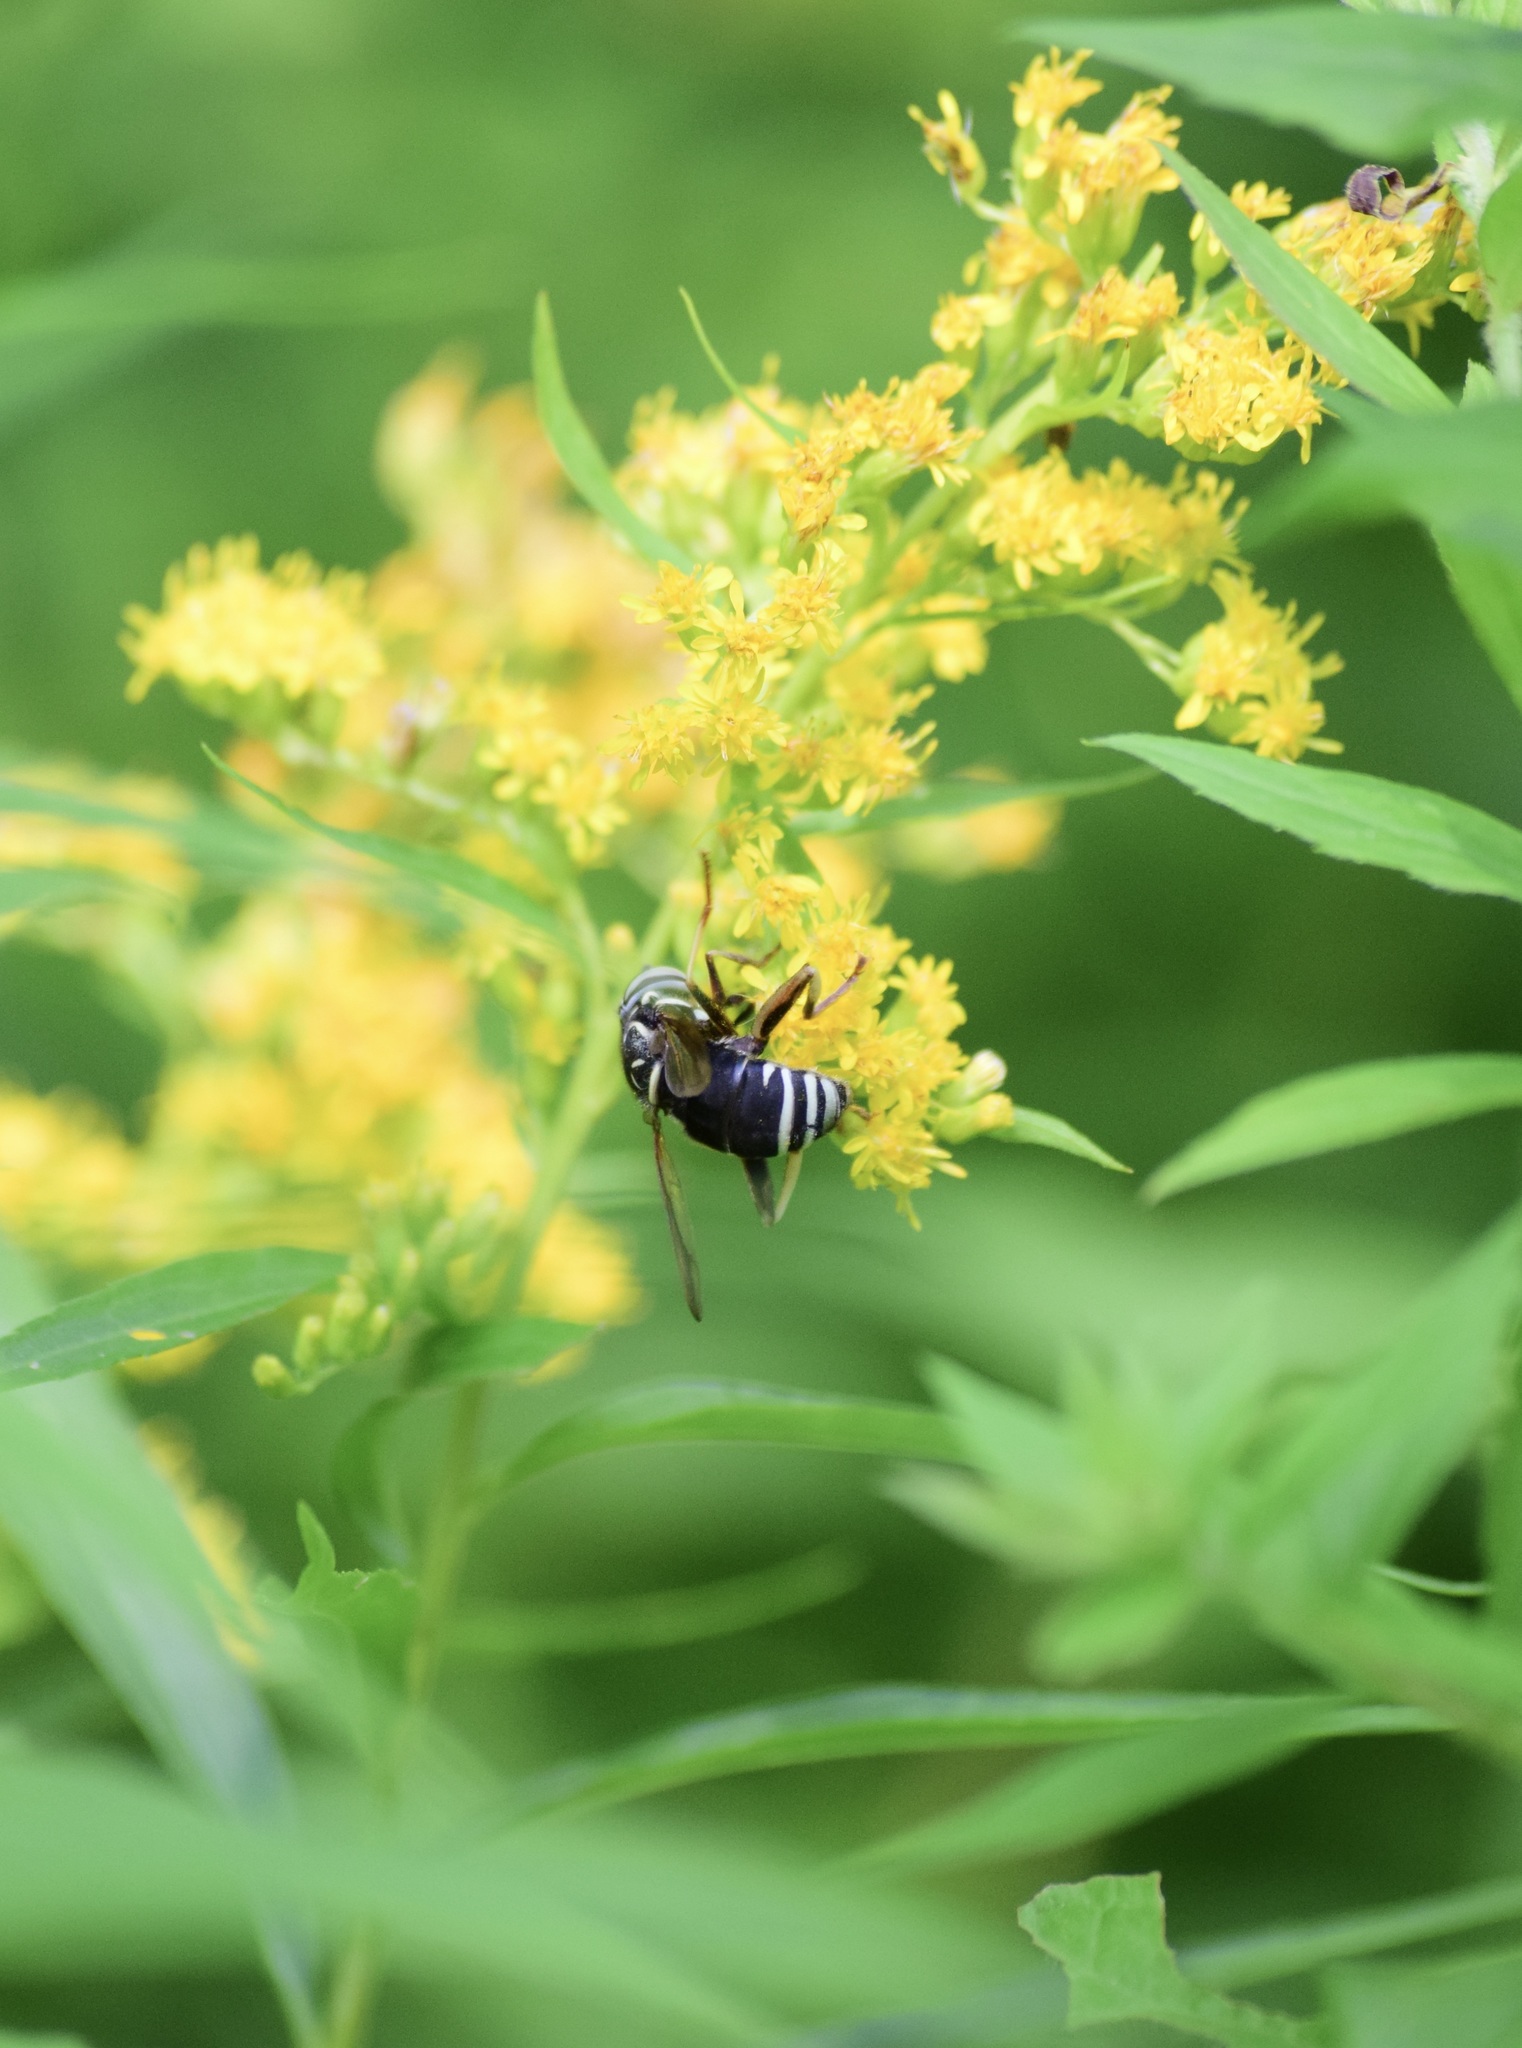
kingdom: Animalia
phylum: Arthropoda
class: Insecta
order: Diptera
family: Syrphidae
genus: Spilomyia
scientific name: Spilomyia fusca
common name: Bald-faced hornet fly
